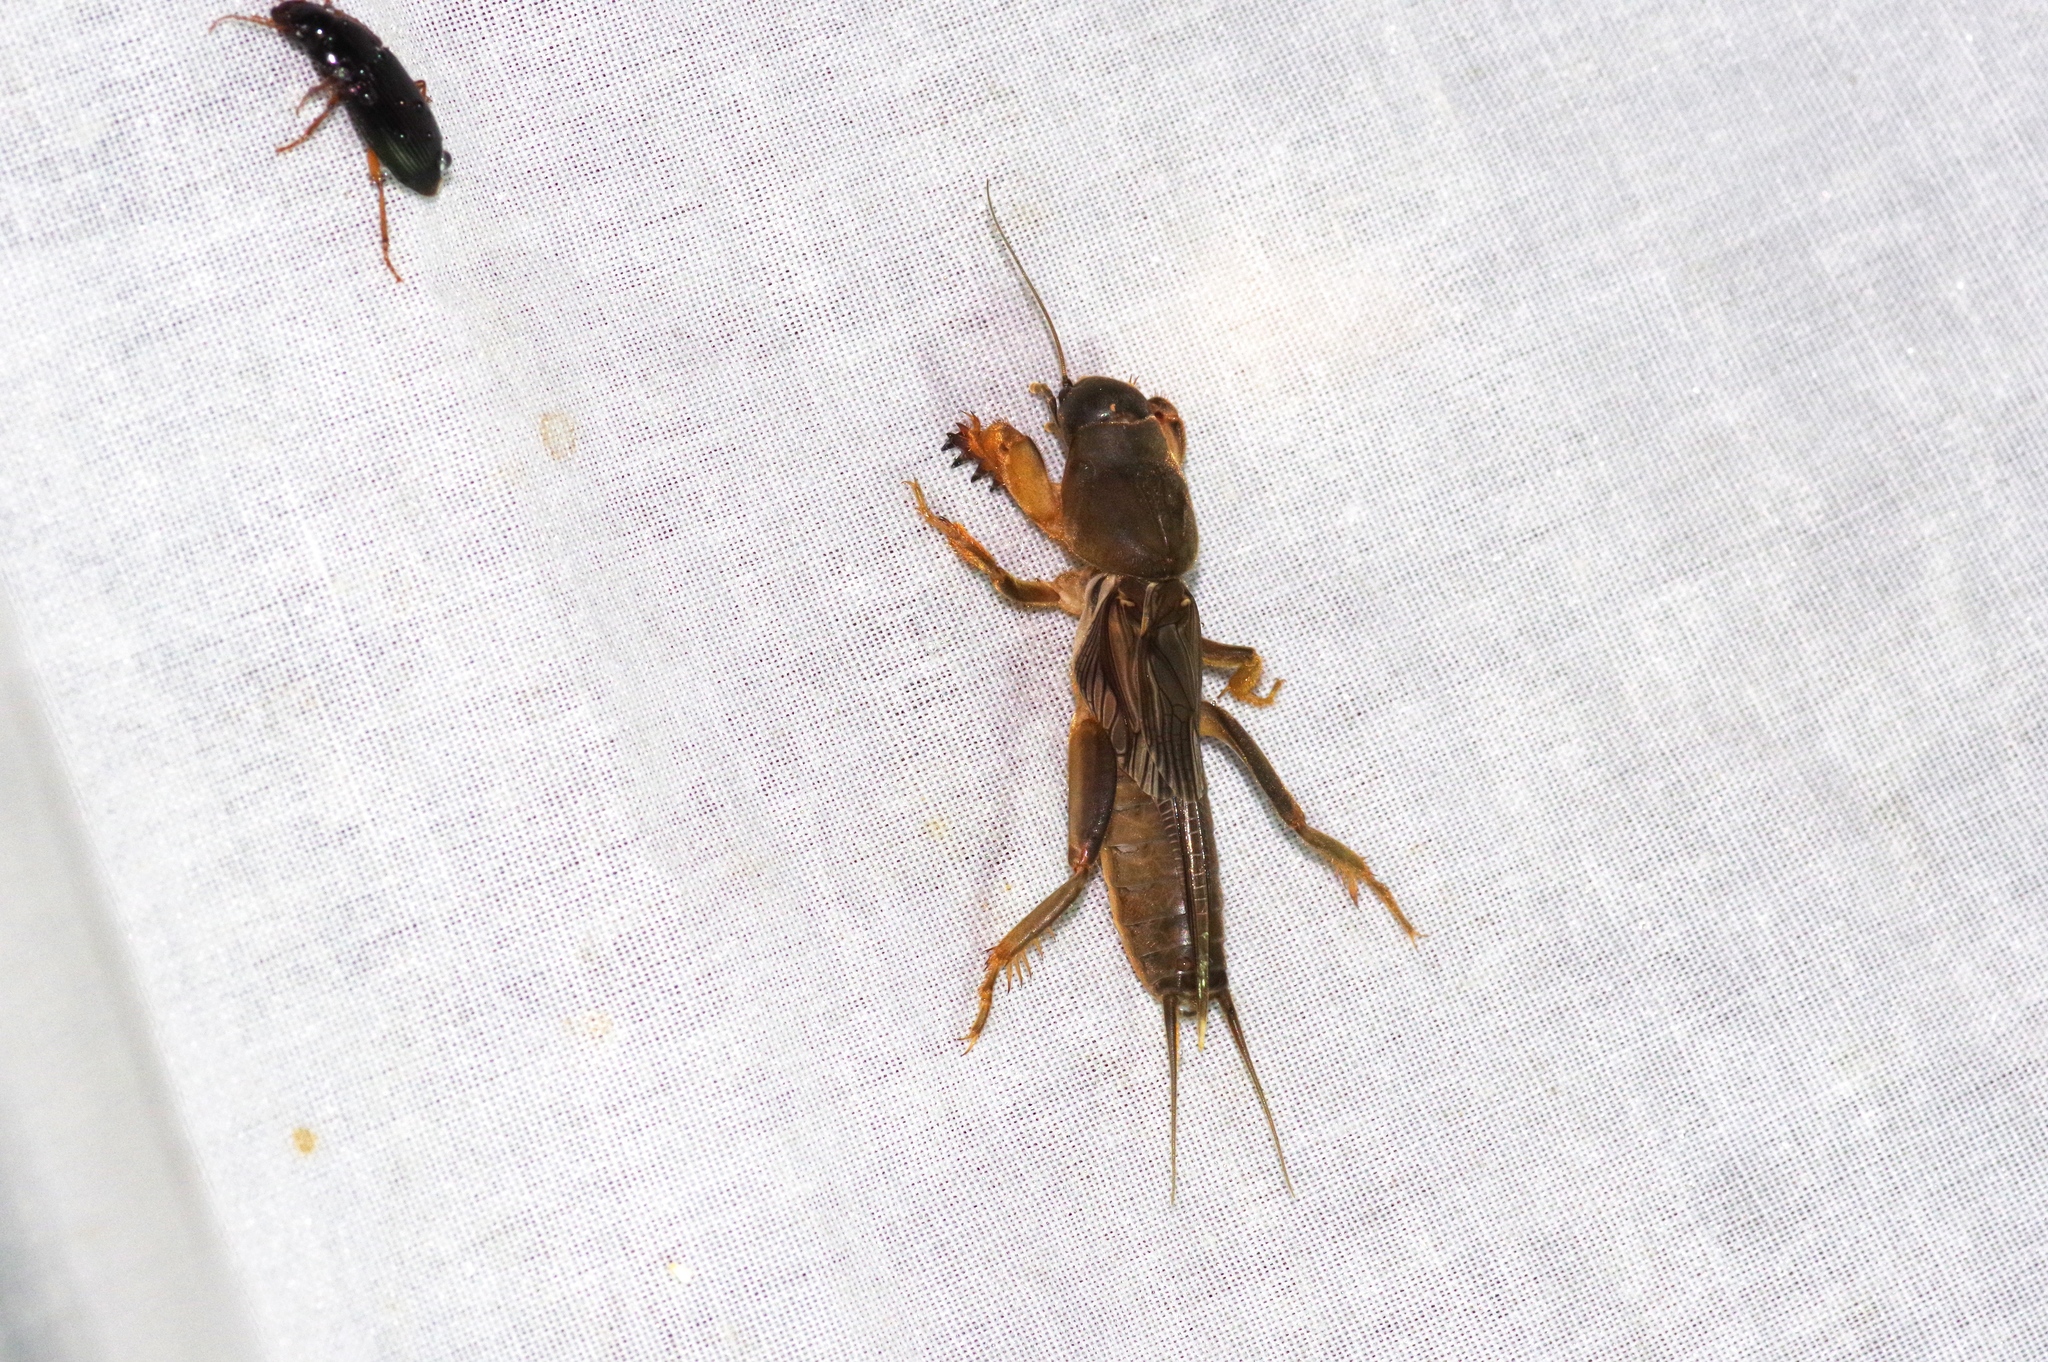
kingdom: Animalia
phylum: Arthropoda
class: Insecta
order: Orthoptera
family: Gryllotalpidae
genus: Gryllotalpa
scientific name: Gryllotalpa orientalis
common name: Grasshopper
